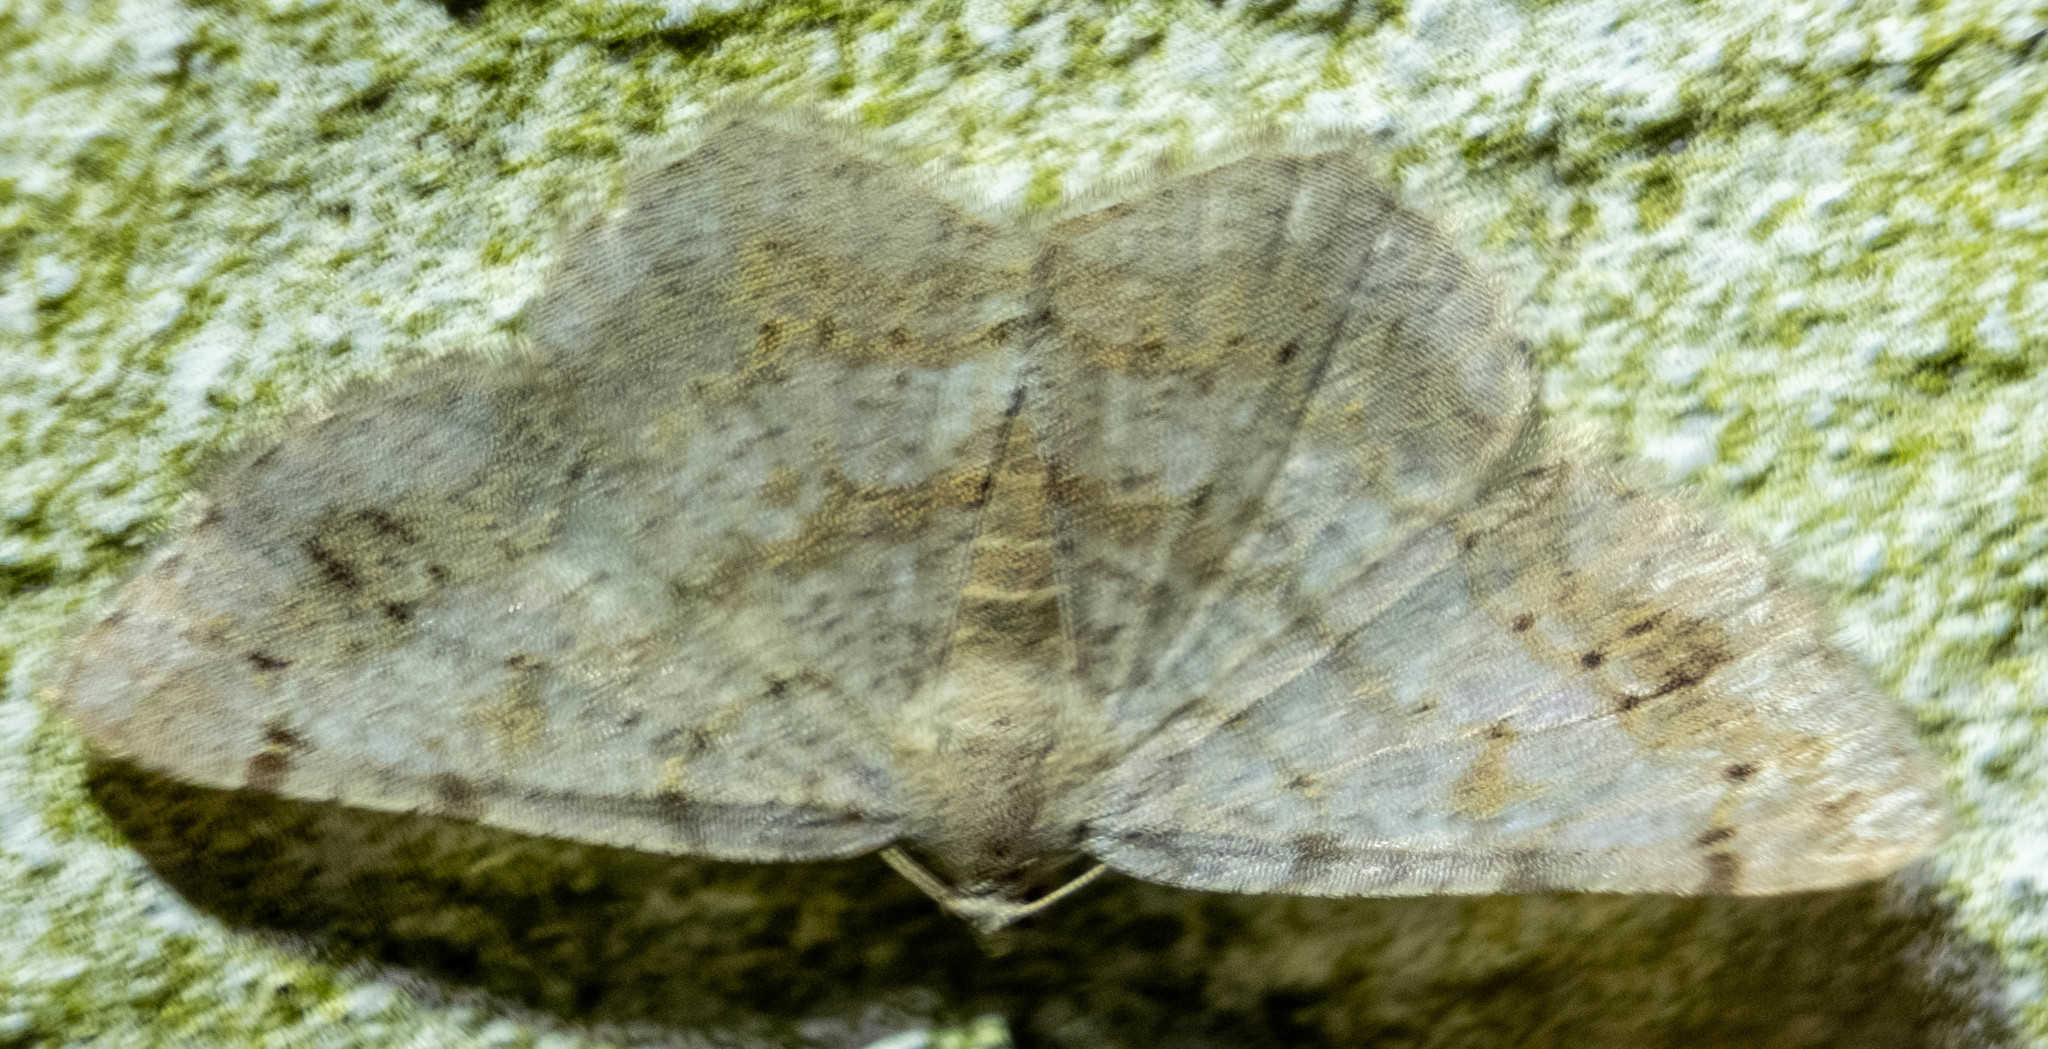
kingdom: Animalia
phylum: Arthropoda
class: Insecta
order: Lepidoptera
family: Geometridae
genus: Digrammia
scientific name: Digrammia ocellinata
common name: Faint-spotted angle
